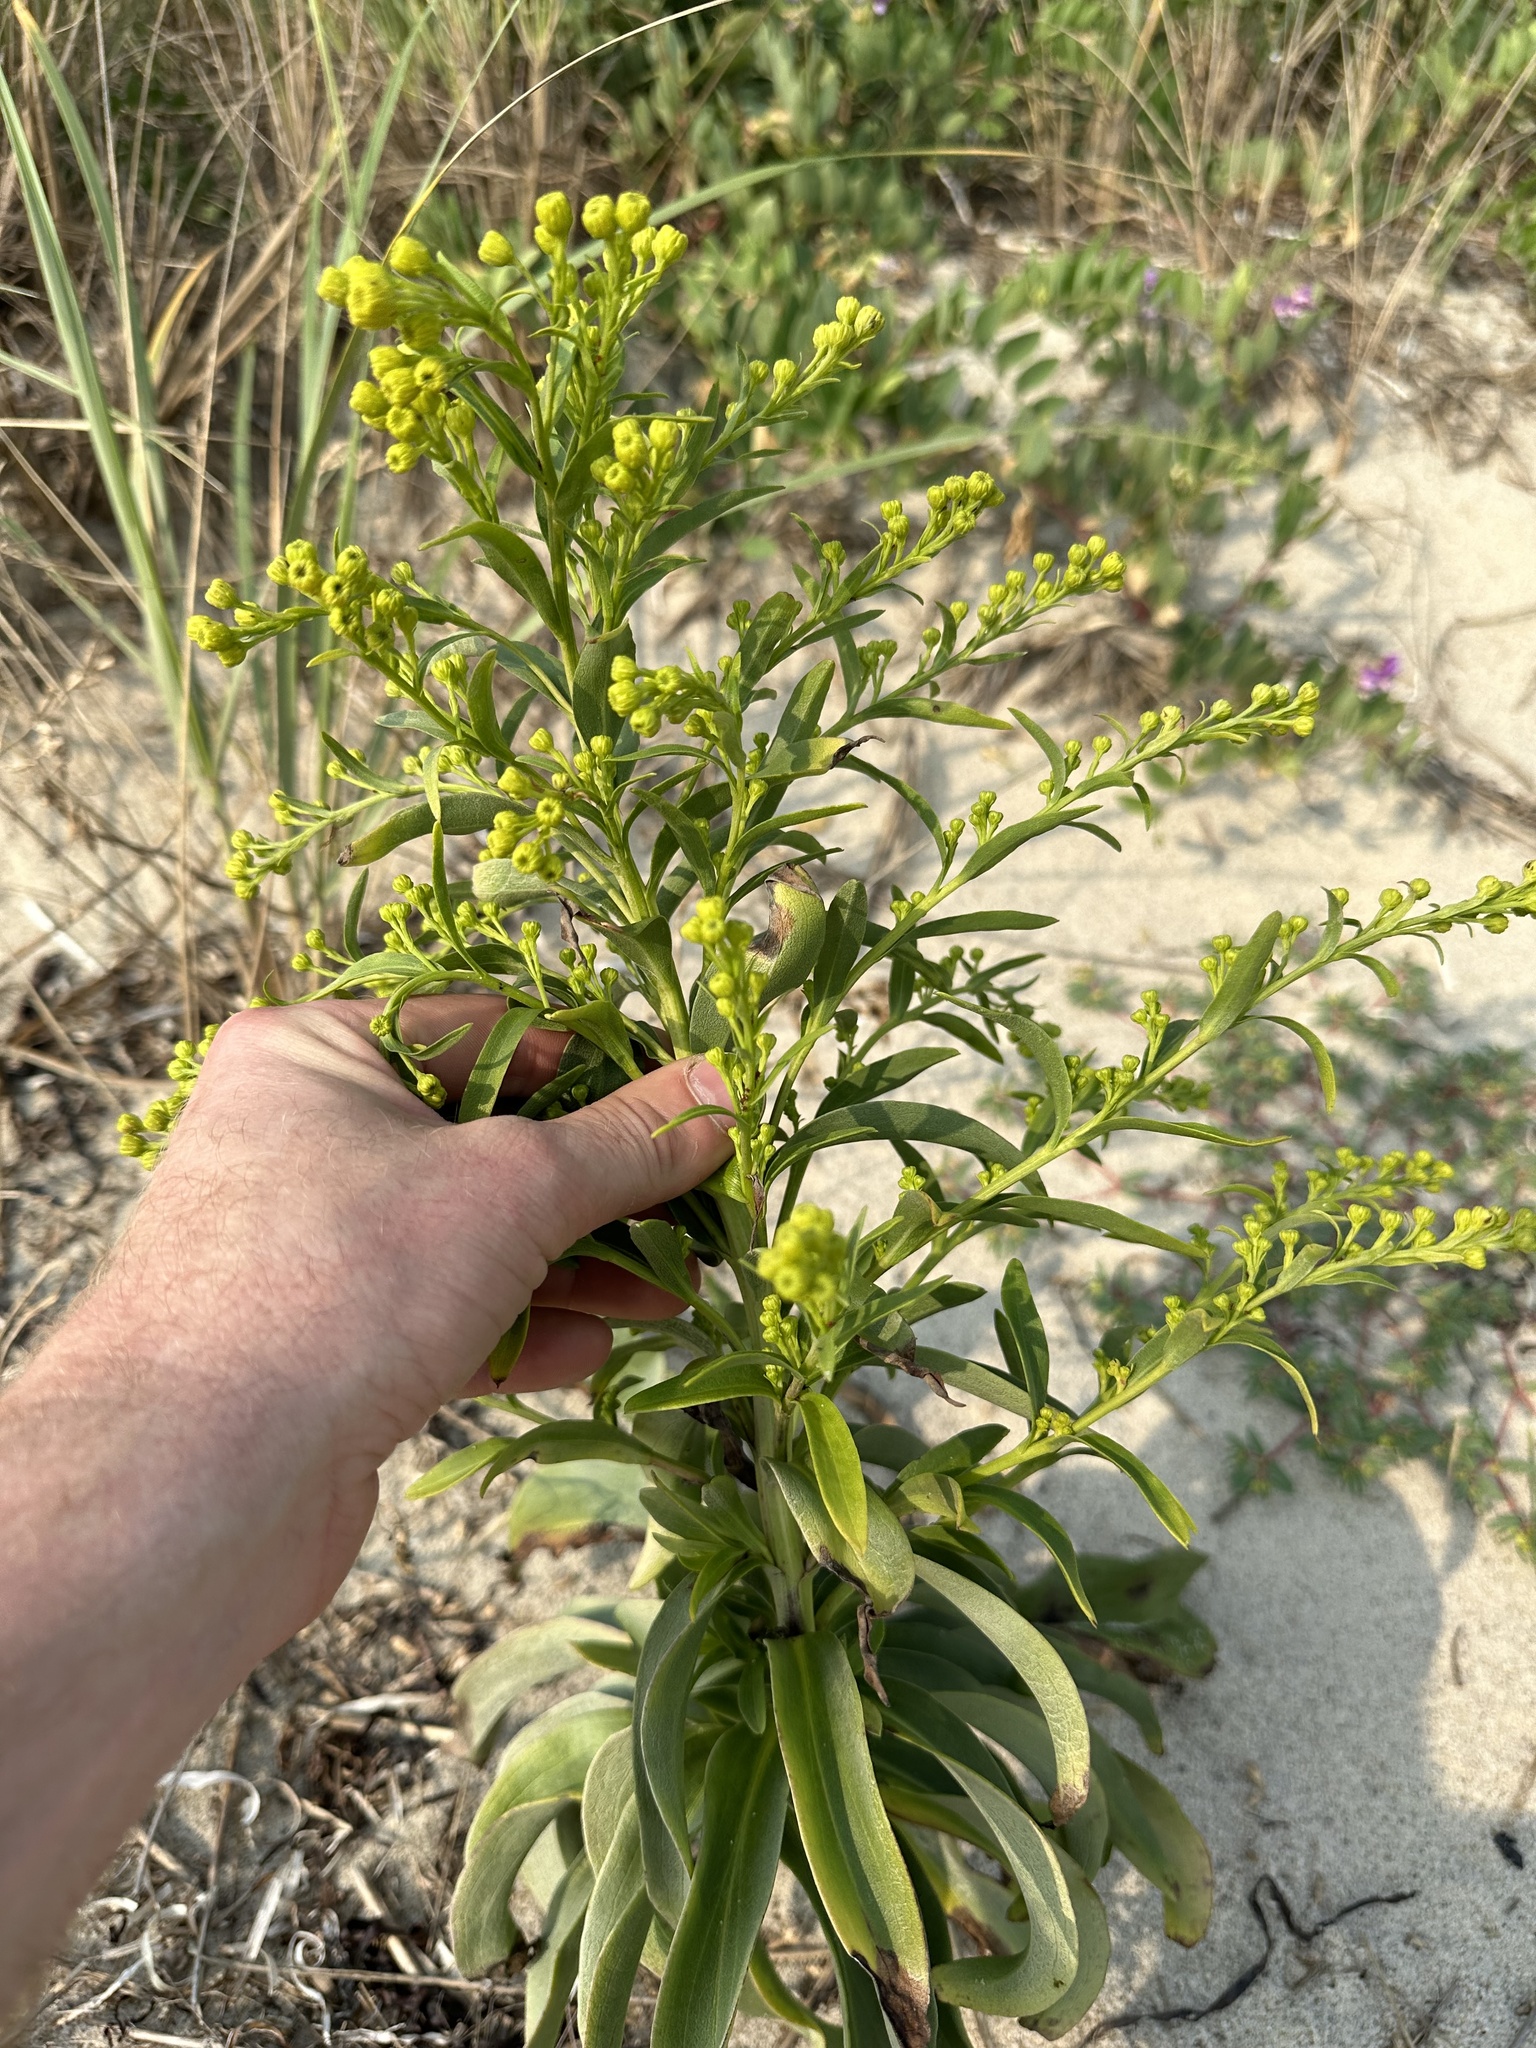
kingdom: Plantae
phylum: Tracheophyta
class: Magnoliopsida
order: Asterales
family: Asteraceae
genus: Solidago
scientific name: Solidago sempervirens
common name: Salt-marsh goldenrod
